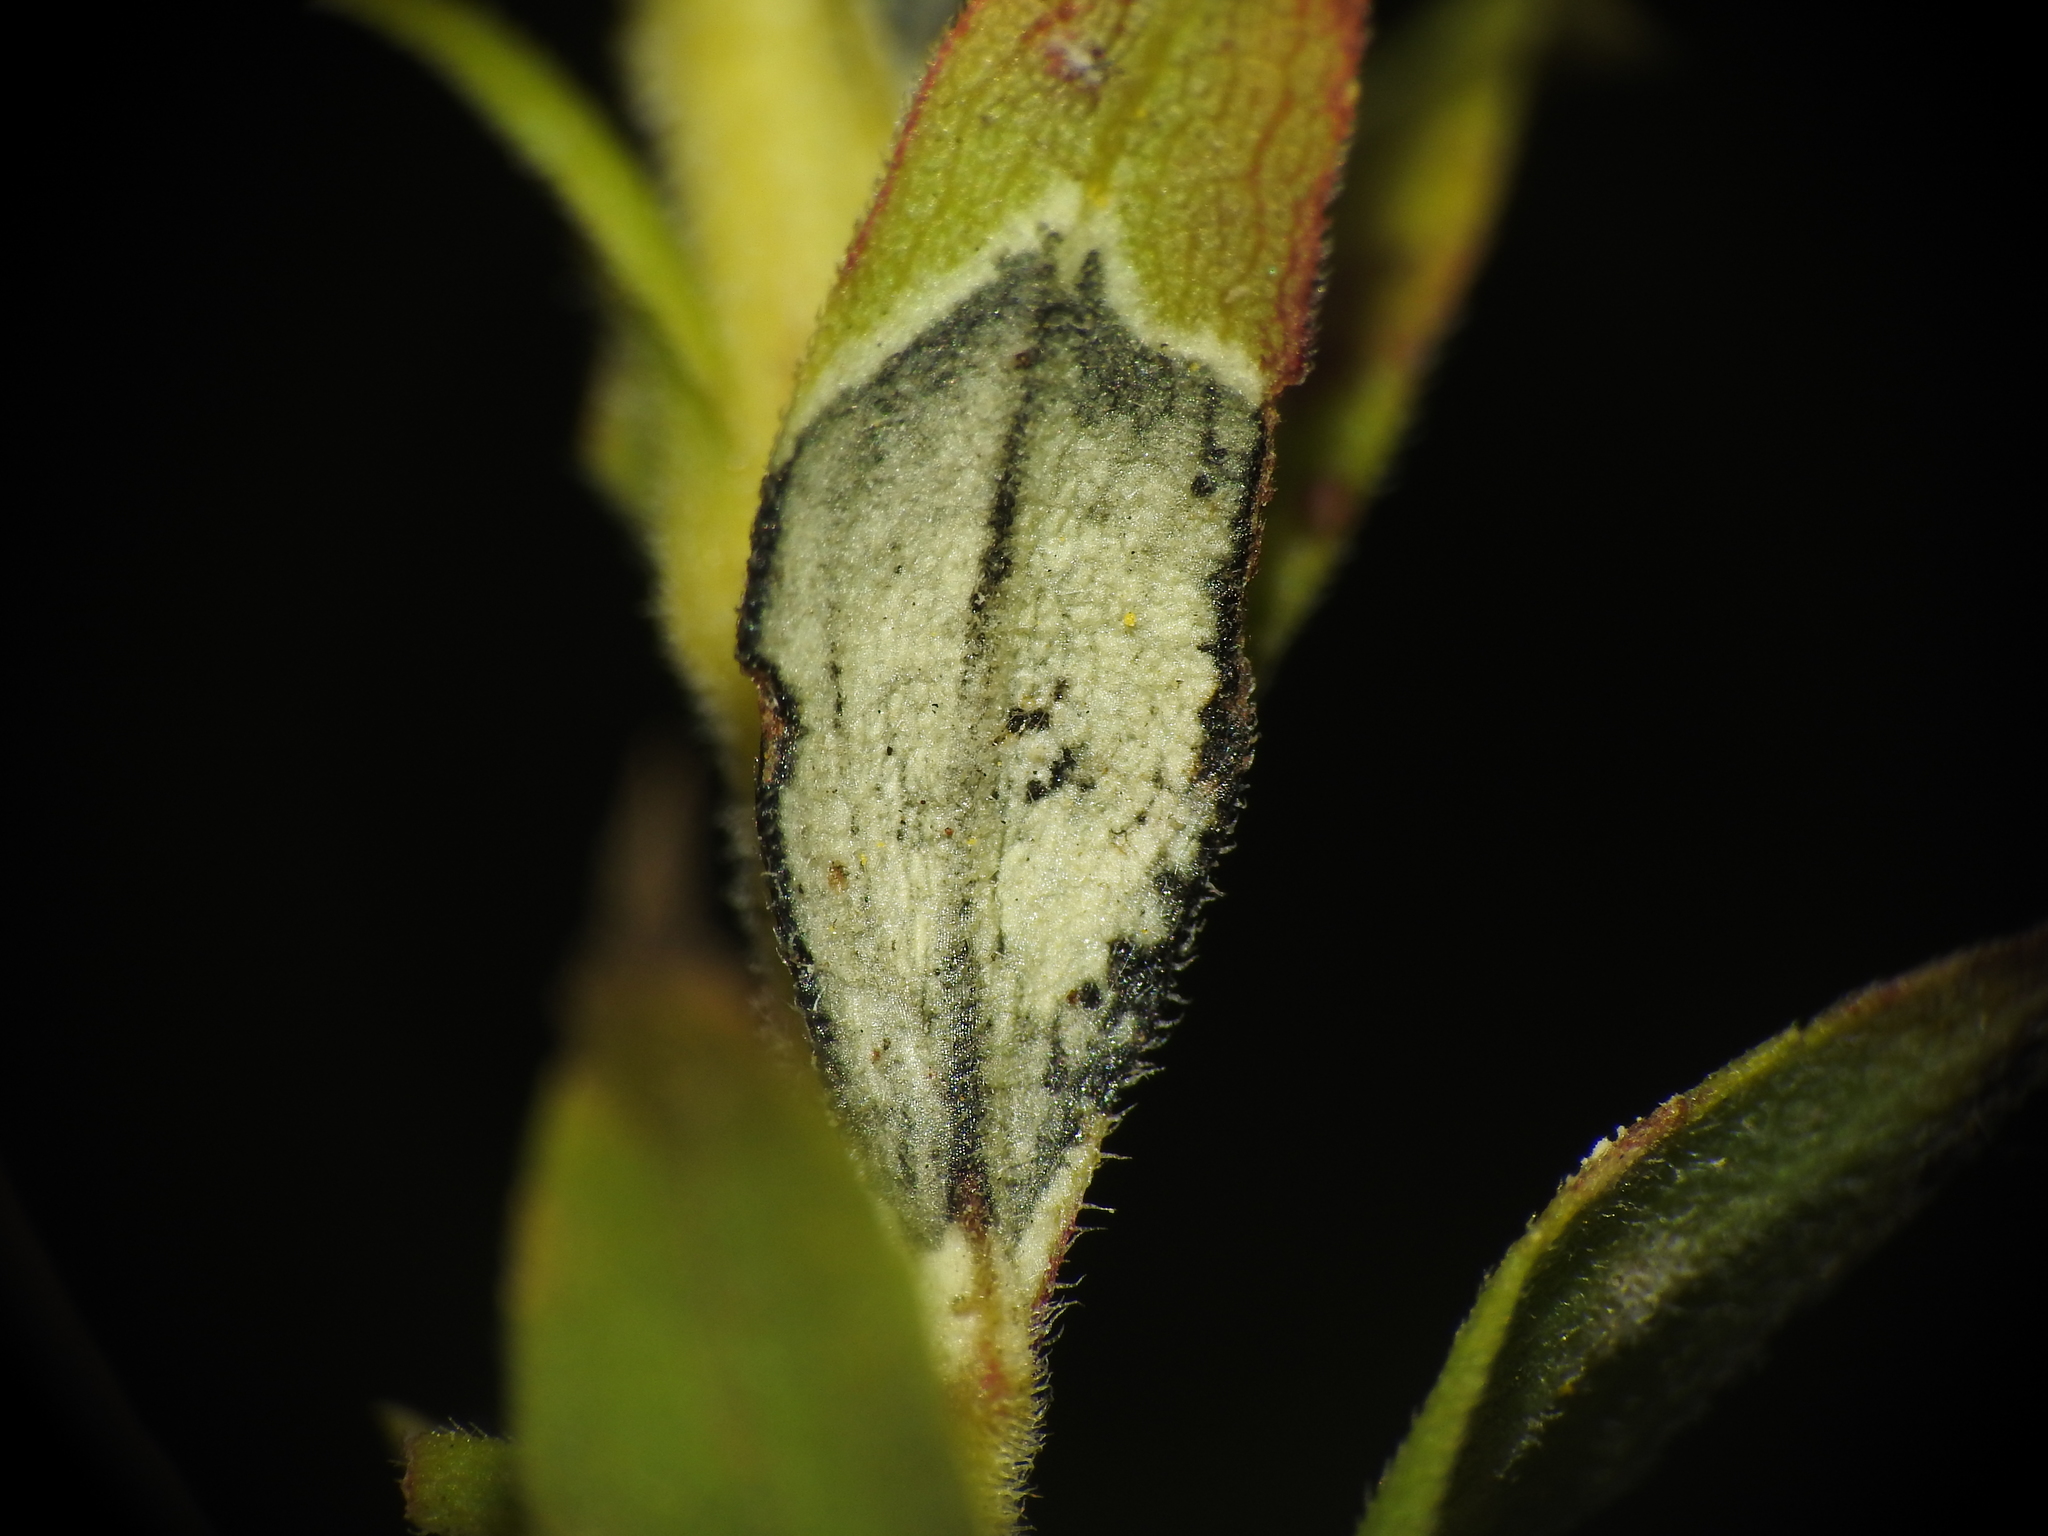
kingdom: Animalia
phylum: Arthropoda
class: Insecta
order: Diptera
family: Cecidomyiidae
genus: Asteromyia
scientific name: Asteromyia carbonifera
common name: Carbonifera goldenrod gall midge
